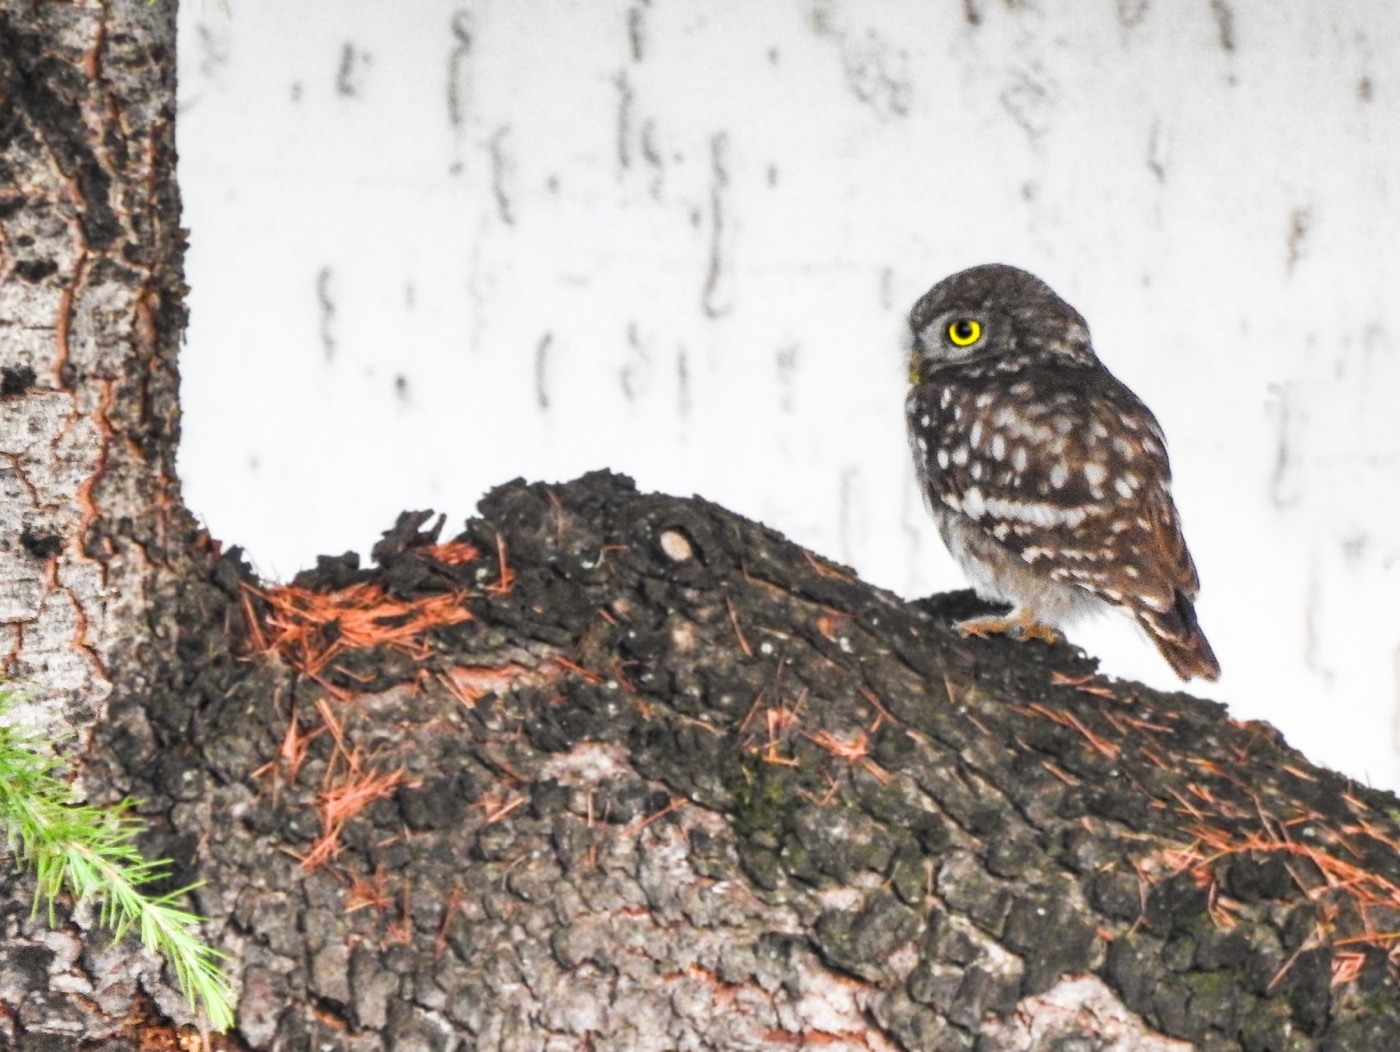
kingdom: Animalia
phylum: Chordata
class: Aves
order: Strigiformes
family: Strigidae
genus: Athene
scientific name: Athene noctua
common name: Little owl
